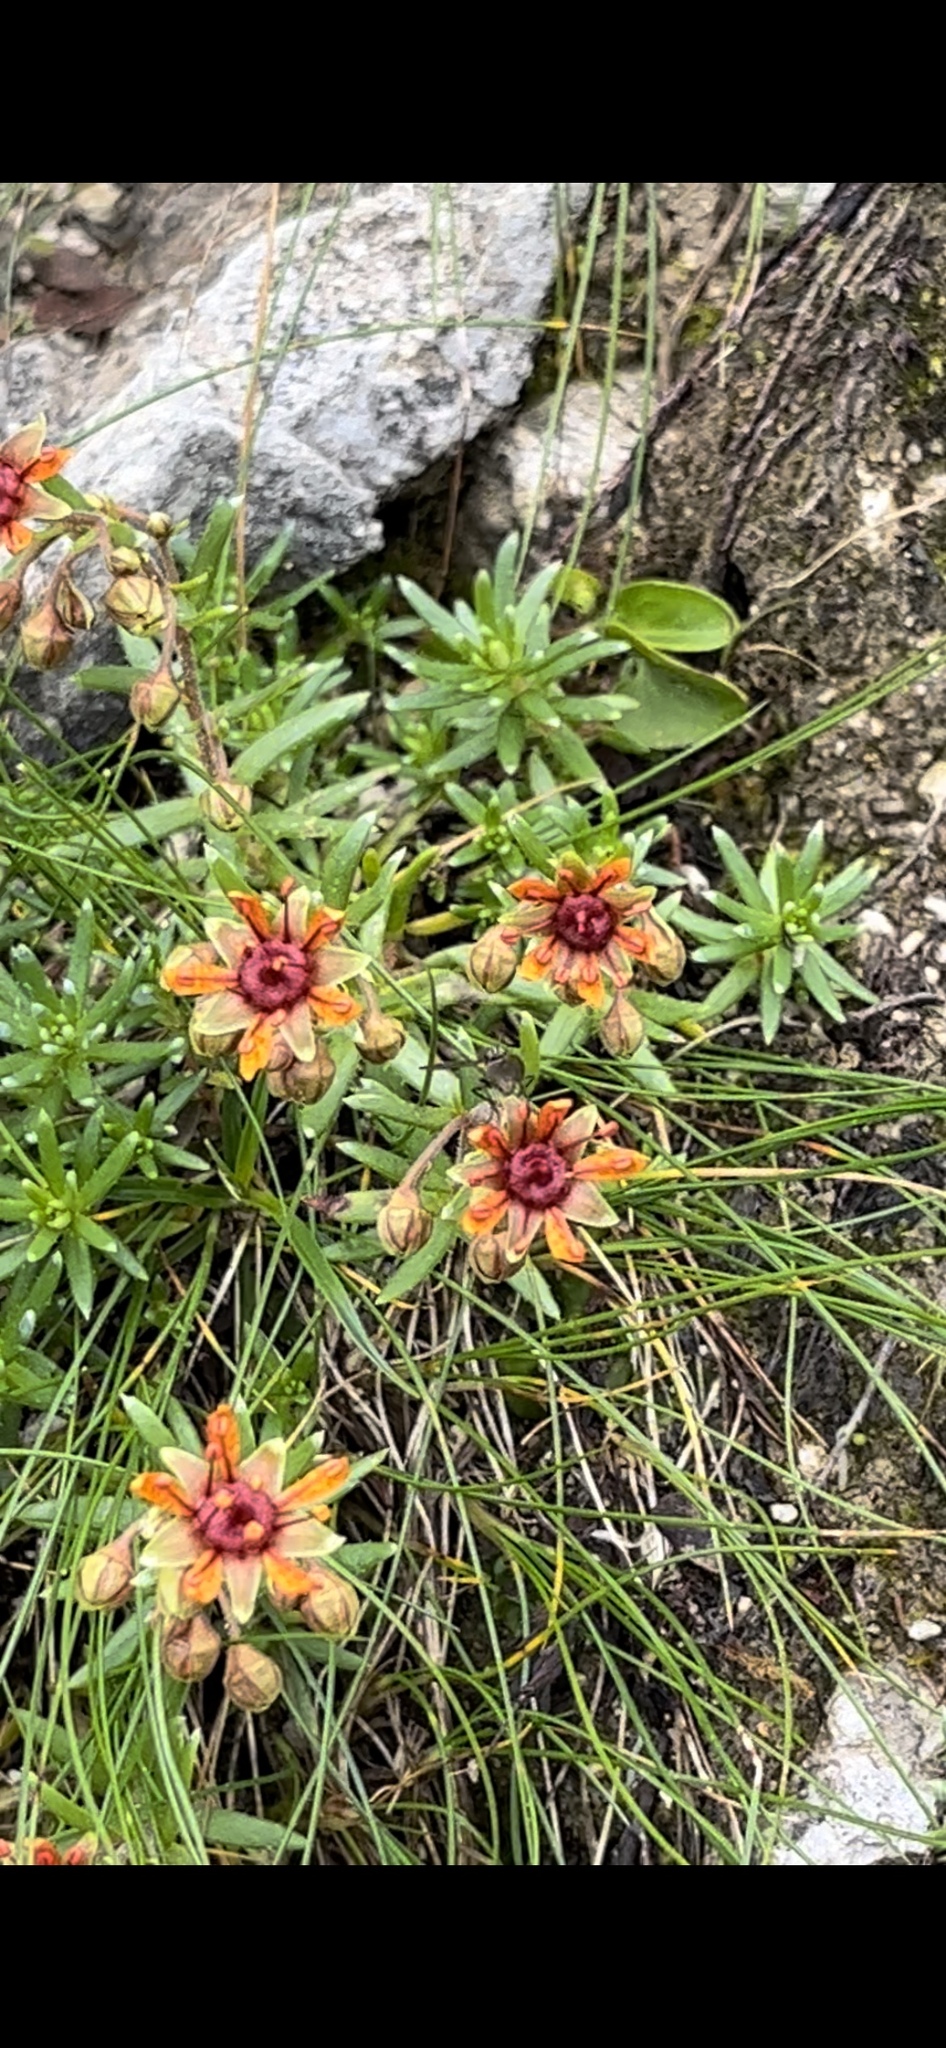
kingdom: Plantae
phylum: Tracheophyta
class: Magnoliopsida
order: Saxifragales
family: Saxifragaceae
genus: Saxifraga
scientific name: Saxifraga aizoides
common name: Yellow mountain saxifrage
